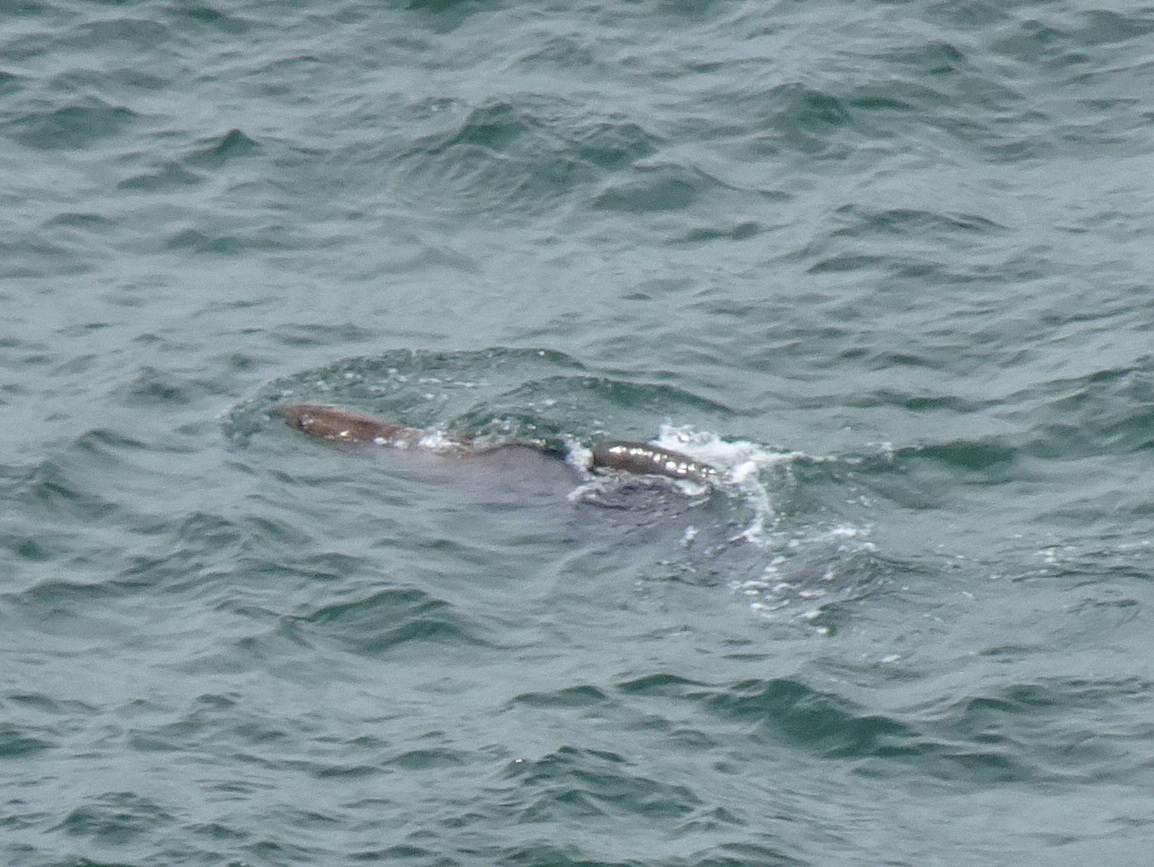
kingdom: Animalia
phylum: Chordata
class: Mammalia
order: Carnivora
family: Otariidae
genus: Zalophus
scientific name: Zalophus californianus
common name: California sea lion
